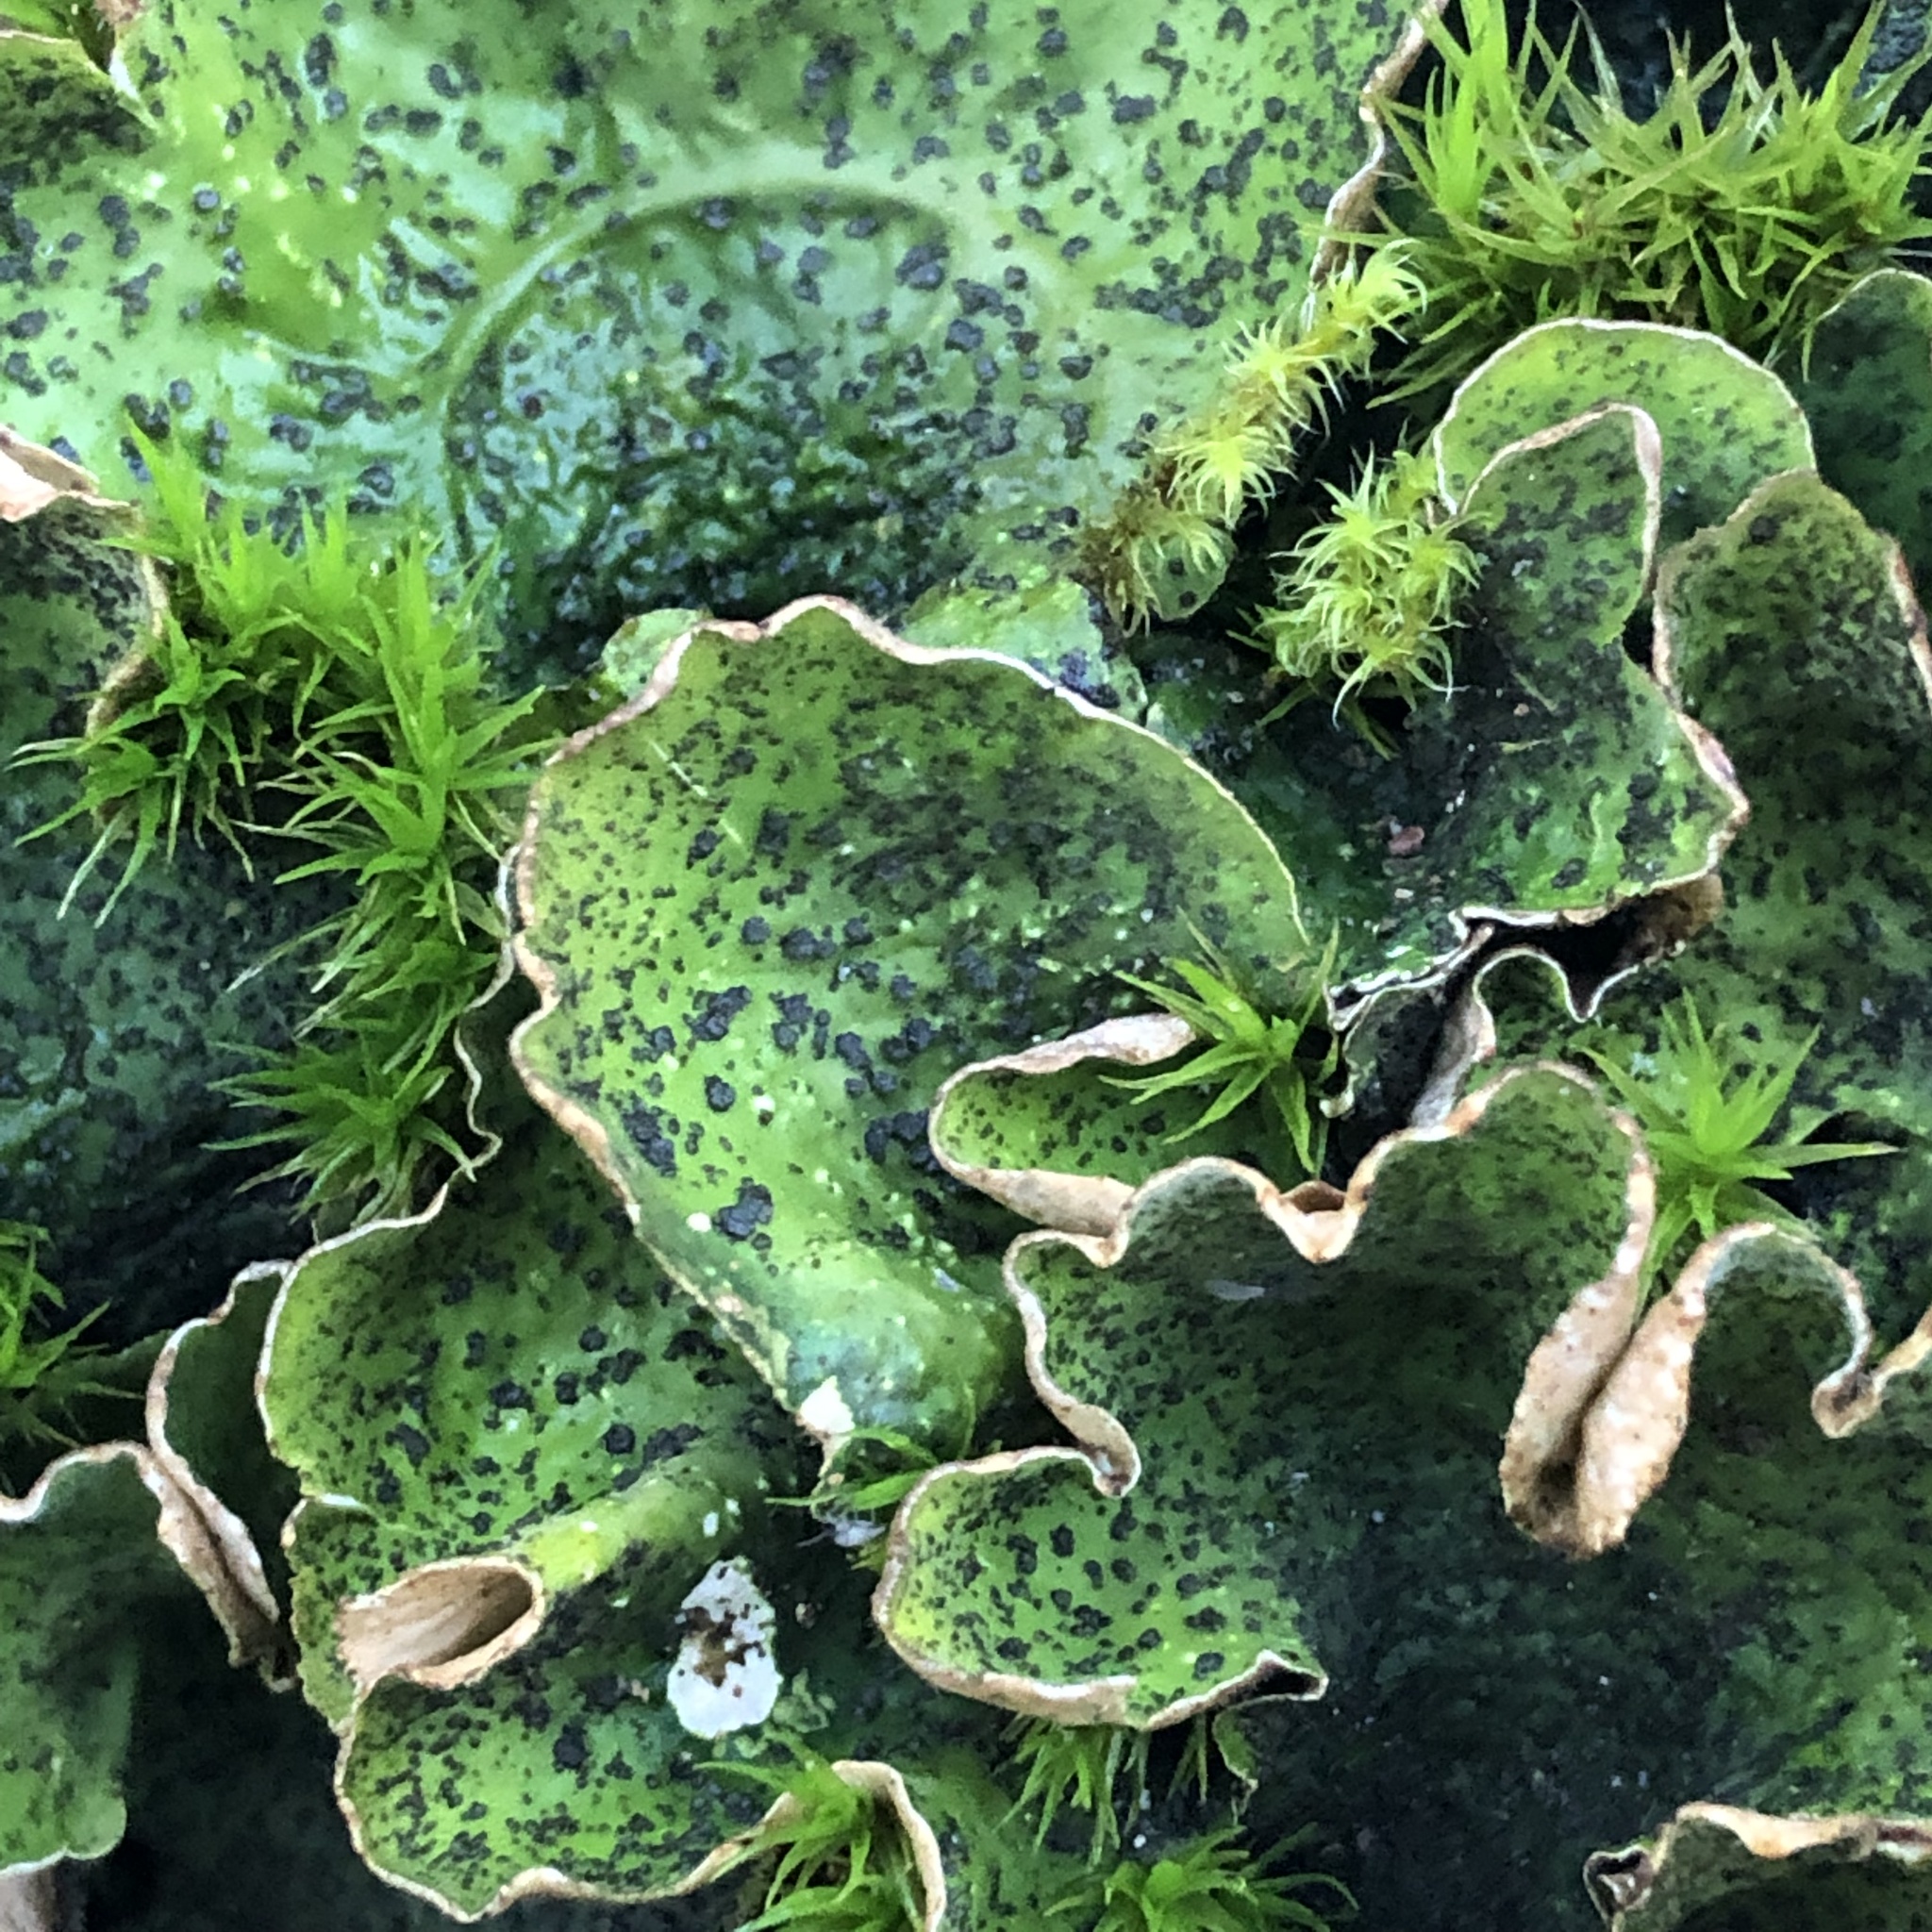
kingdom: Fungi
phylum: Ascomycota
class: Lecanoromycetes
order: Peltigerales
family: Peltigeraceae
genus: Peltigera
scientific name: Peltigera britannica
